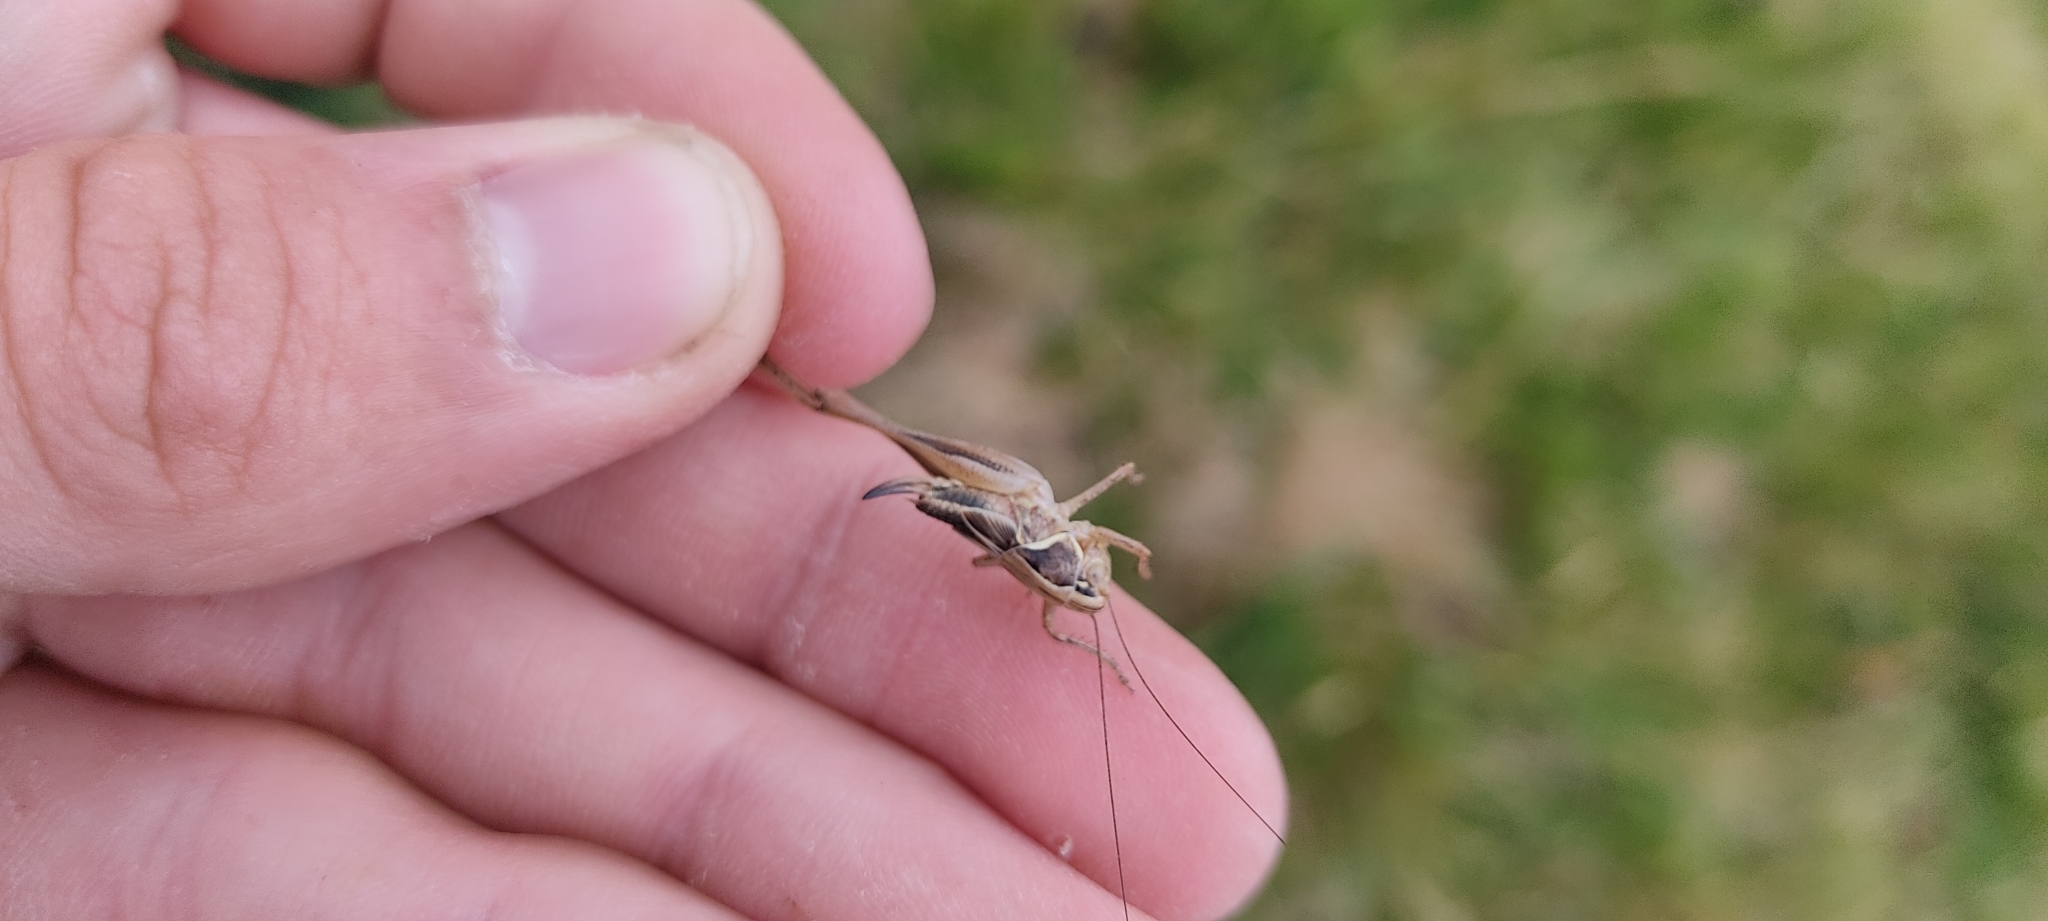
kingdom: Animalia
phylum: Arthropoda
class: Insecta
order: Orthoptera
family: Tettigoniidae
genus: Tessellana
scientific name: Tessellana tessellata
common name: Grasshopper
